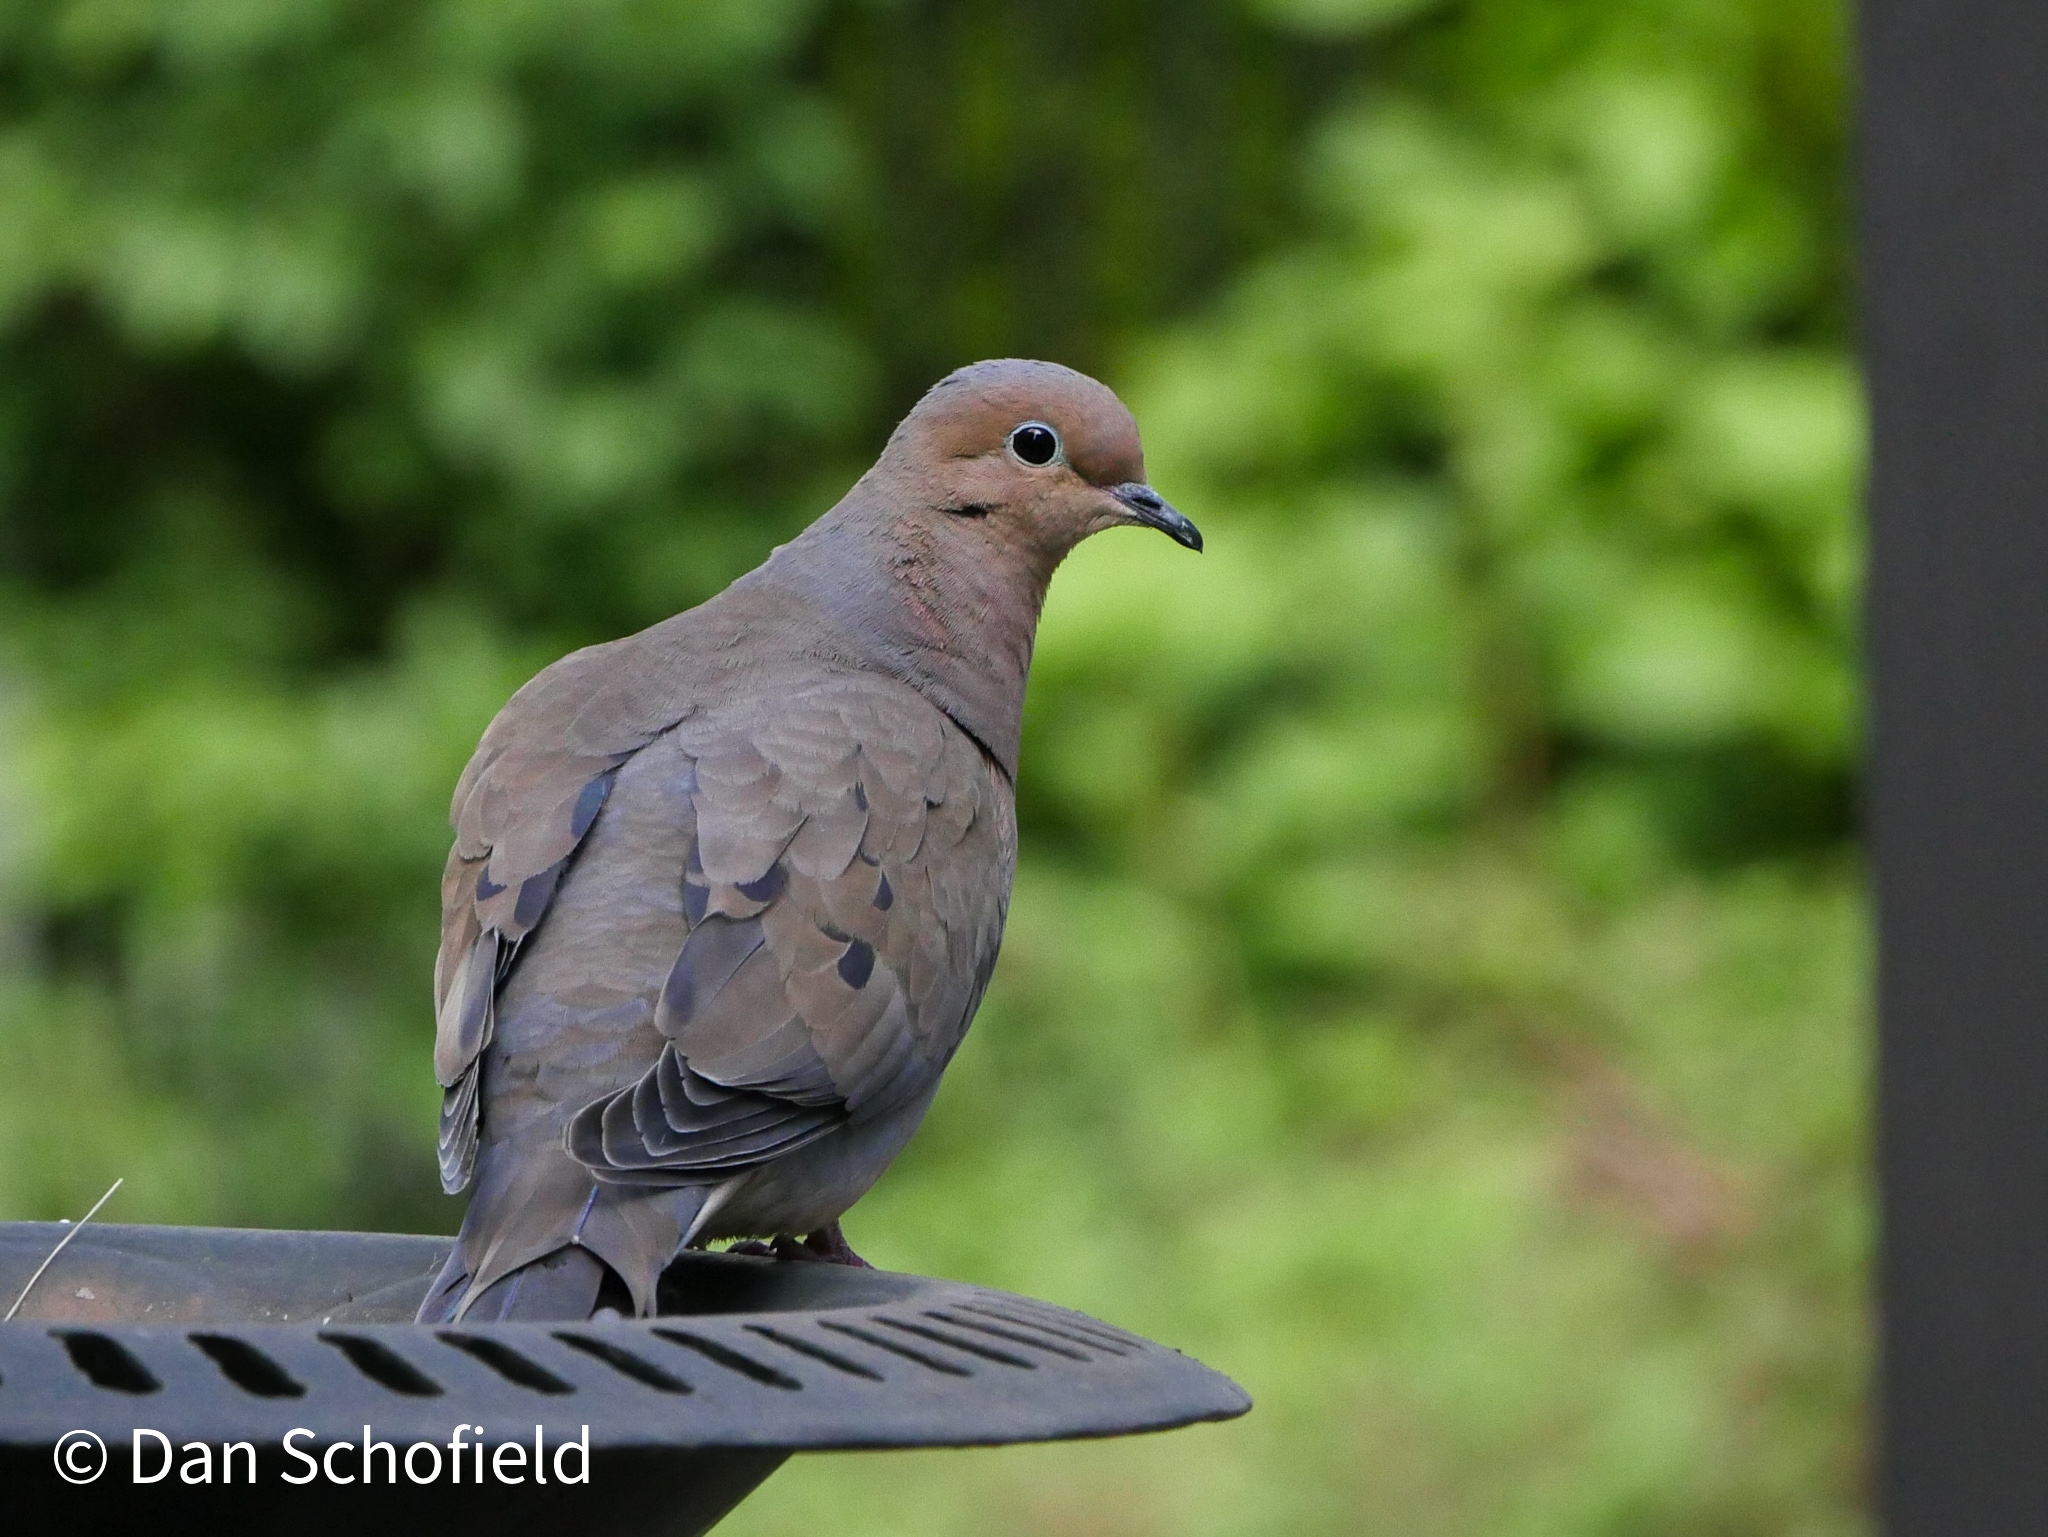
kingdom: Animalia
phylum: Chordata
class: Aves
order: Columbiformes
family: Columbidae
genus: Zenaida
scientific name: Zenaida macroura
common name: Mourning dove
